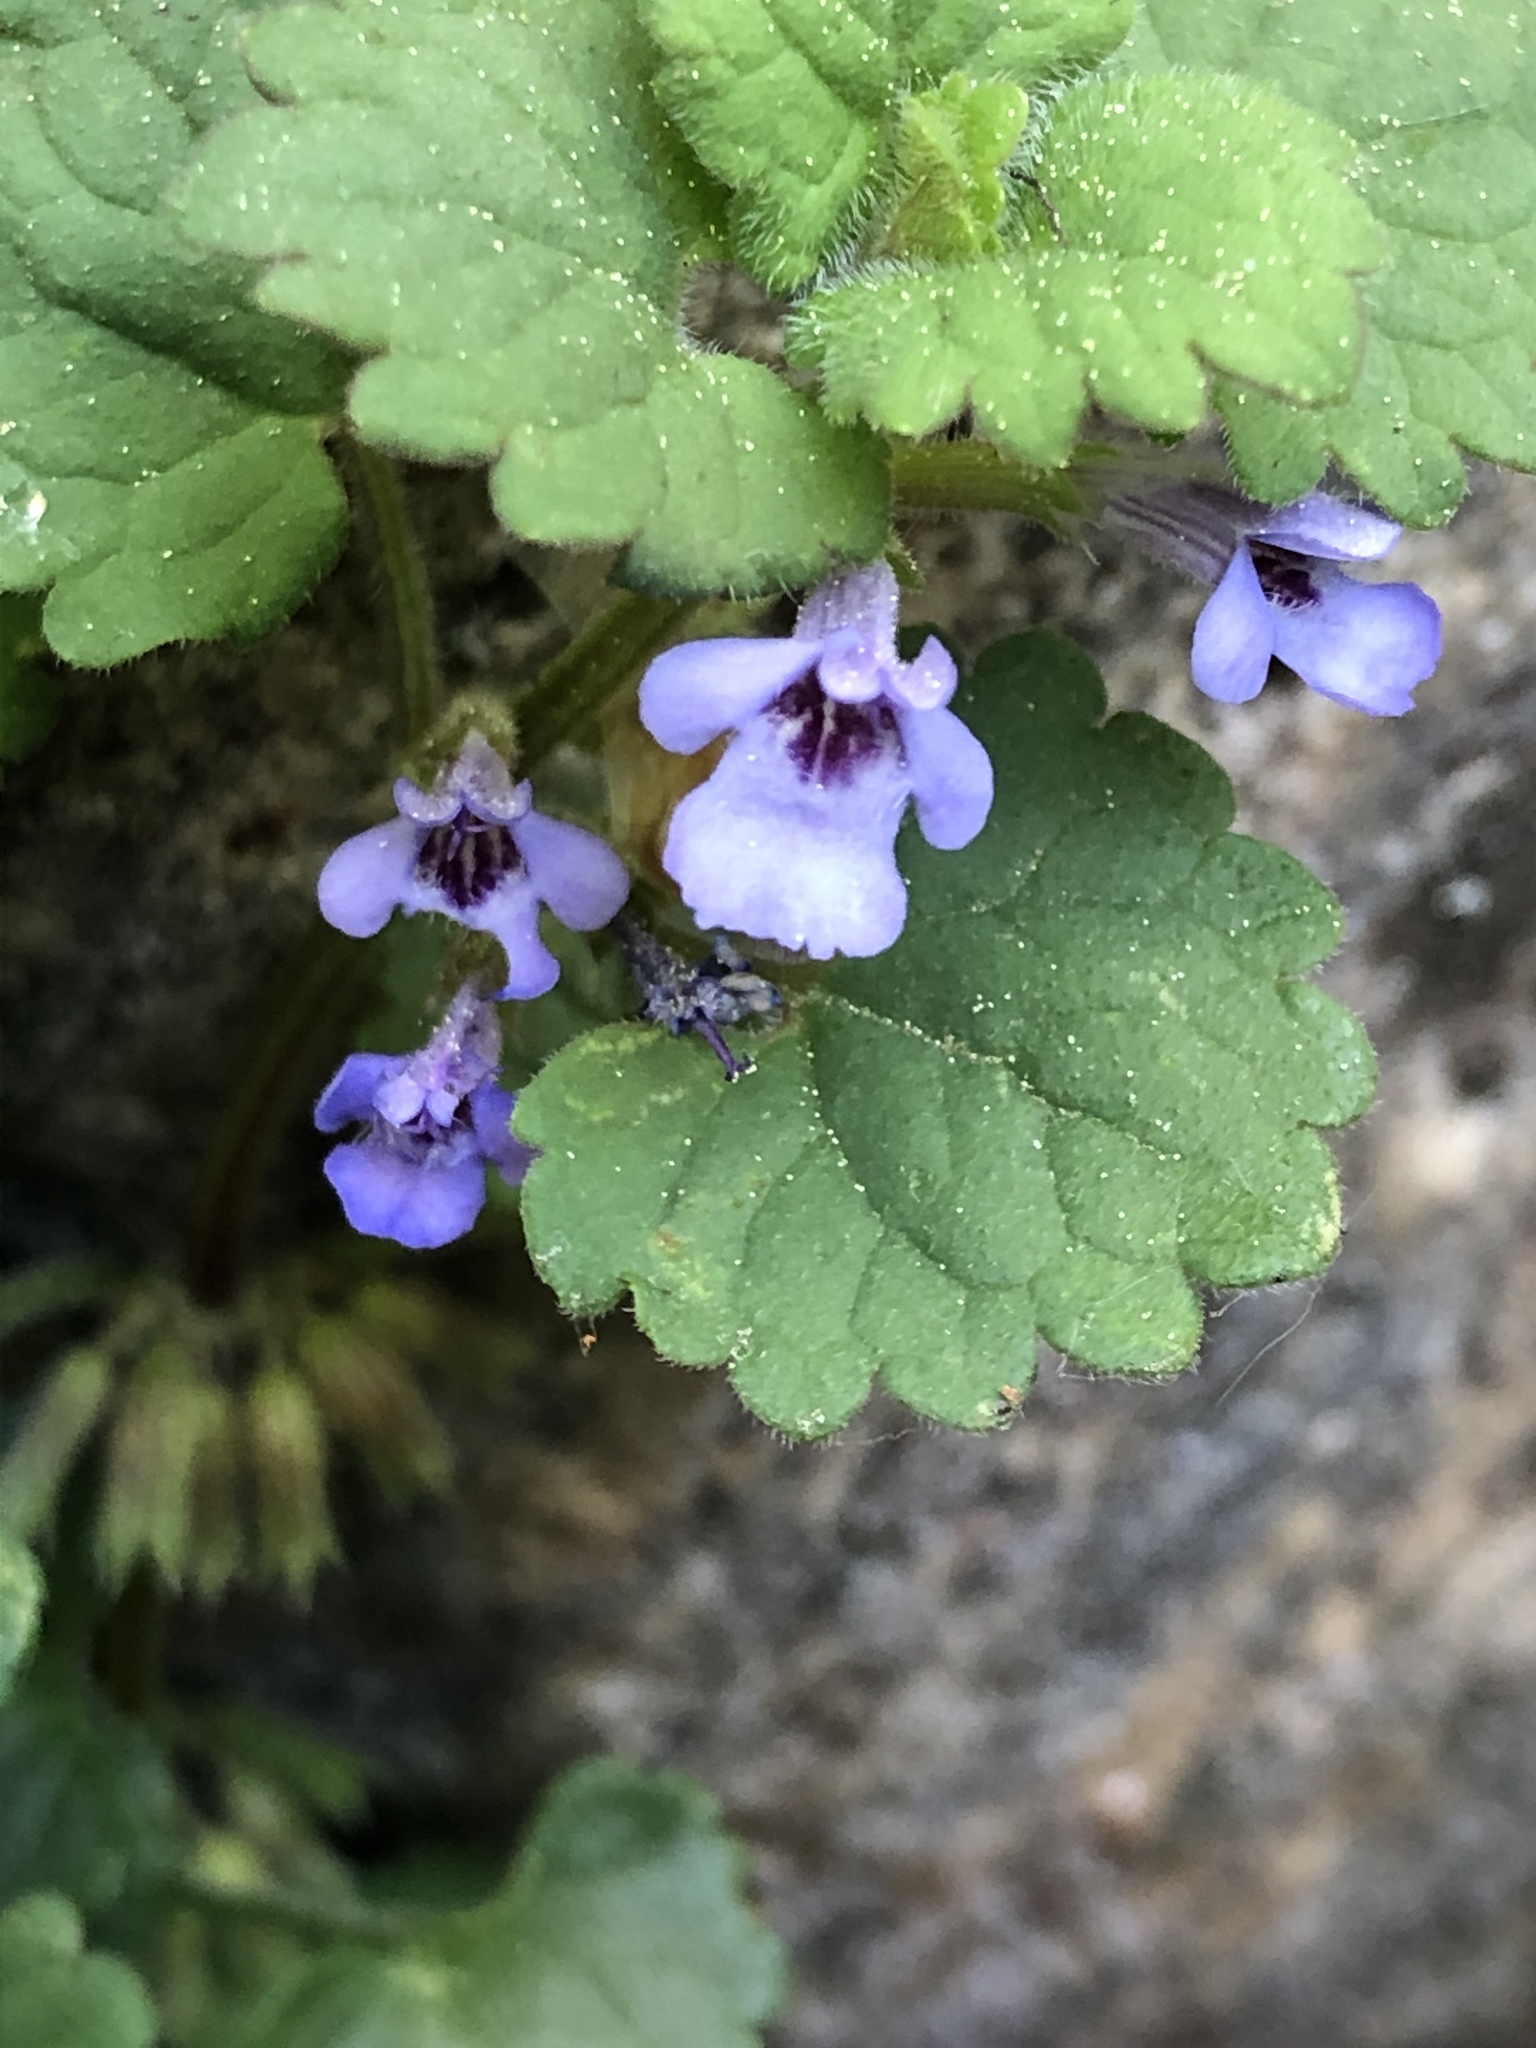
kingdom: Plantae
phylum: Tracheophyta
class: Magnoliopsida
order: Lamiales
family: Lamiaceae
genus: Glechoma
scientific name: Glechoma hederacea
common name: Ground ivy
